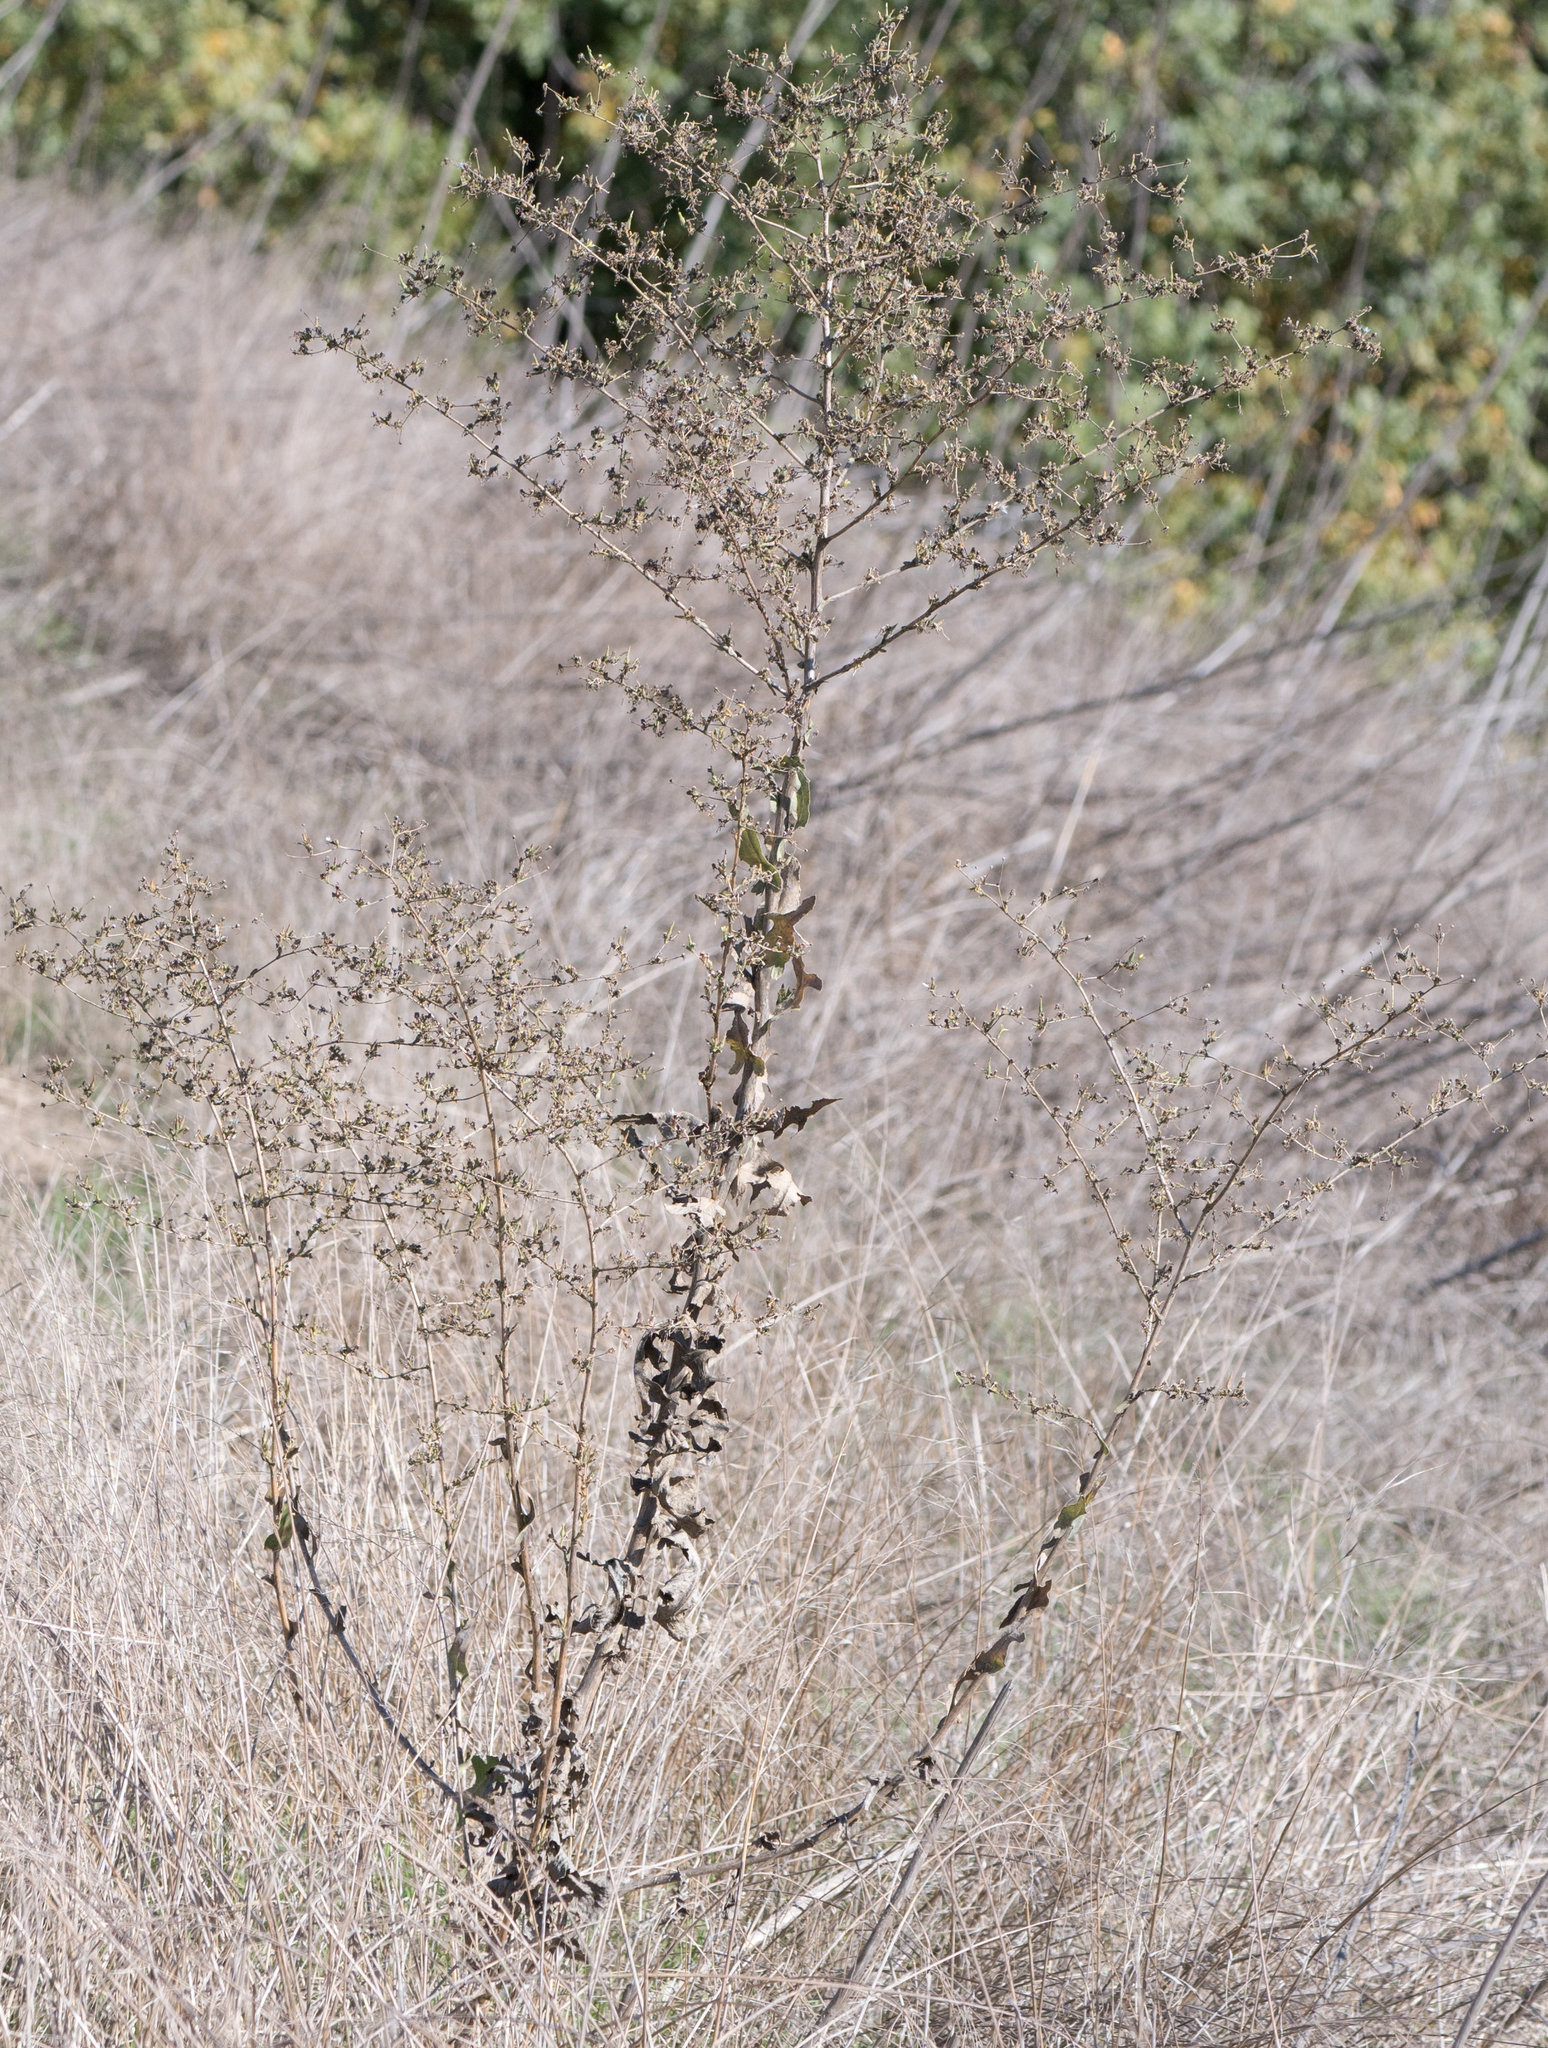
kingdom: Plantae
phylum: Tracheophyta
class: Magnoliopsida
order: Asterales
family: Asteraceae
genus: Lactuca
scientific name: Lactuca serriola
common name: Prickly lettuce
